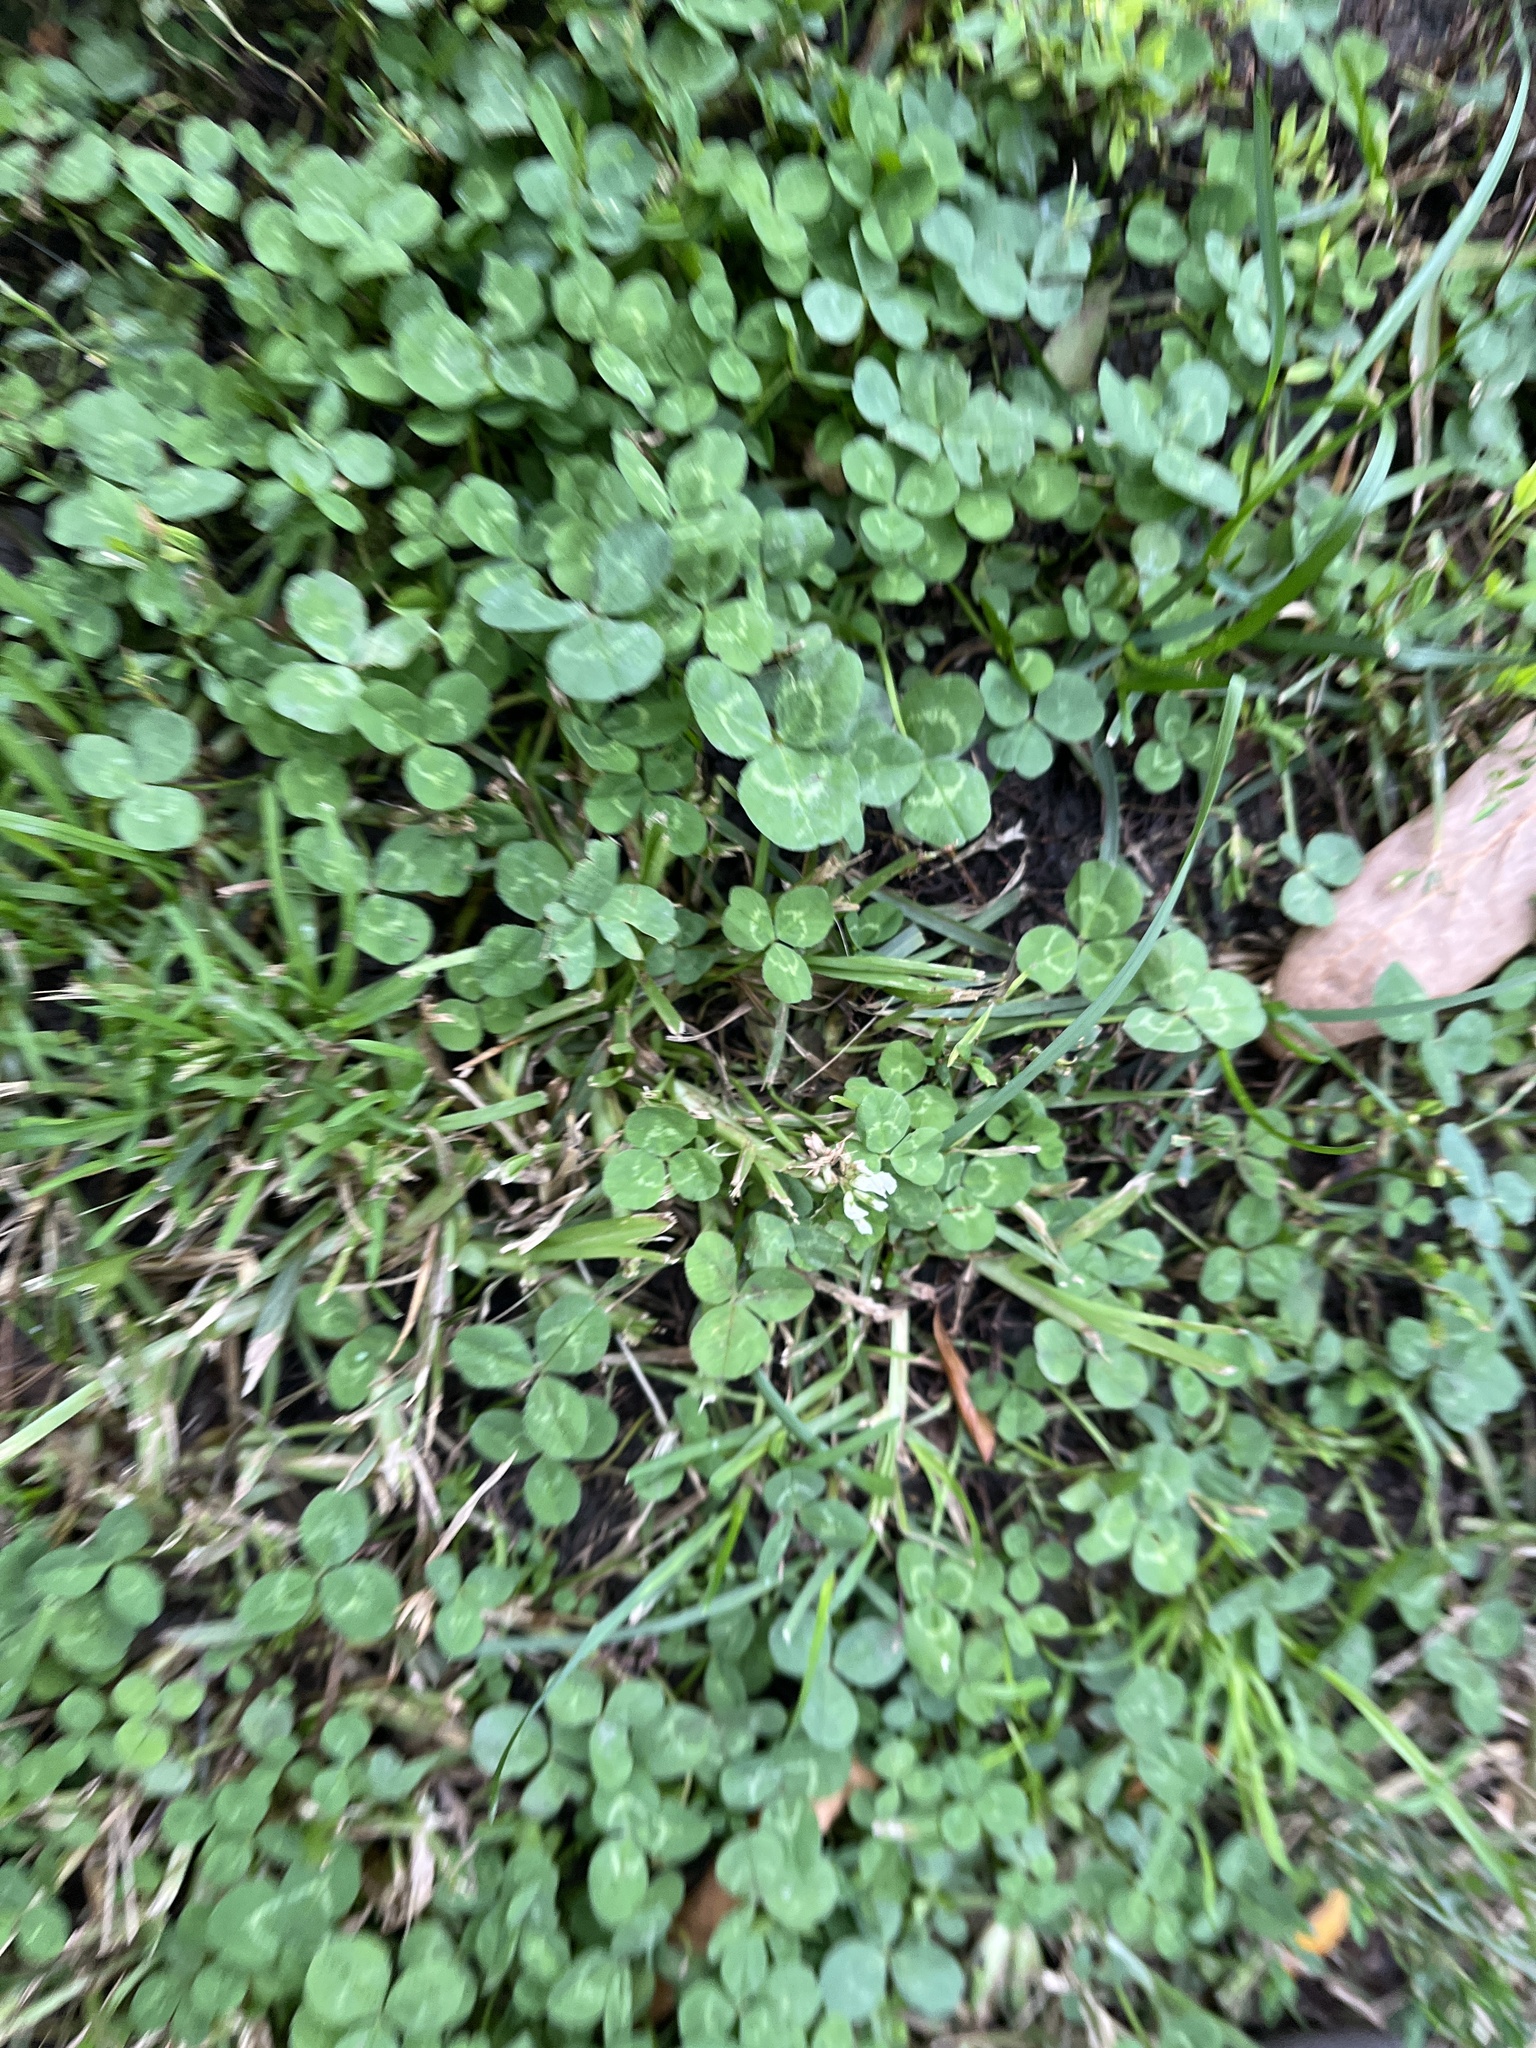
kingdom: Plantae
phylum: Tracheophyta
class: Magnoliopsida
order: Fabales
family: Fabaceae
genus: Trifolium
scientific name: Trifolium repens
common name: White clover
